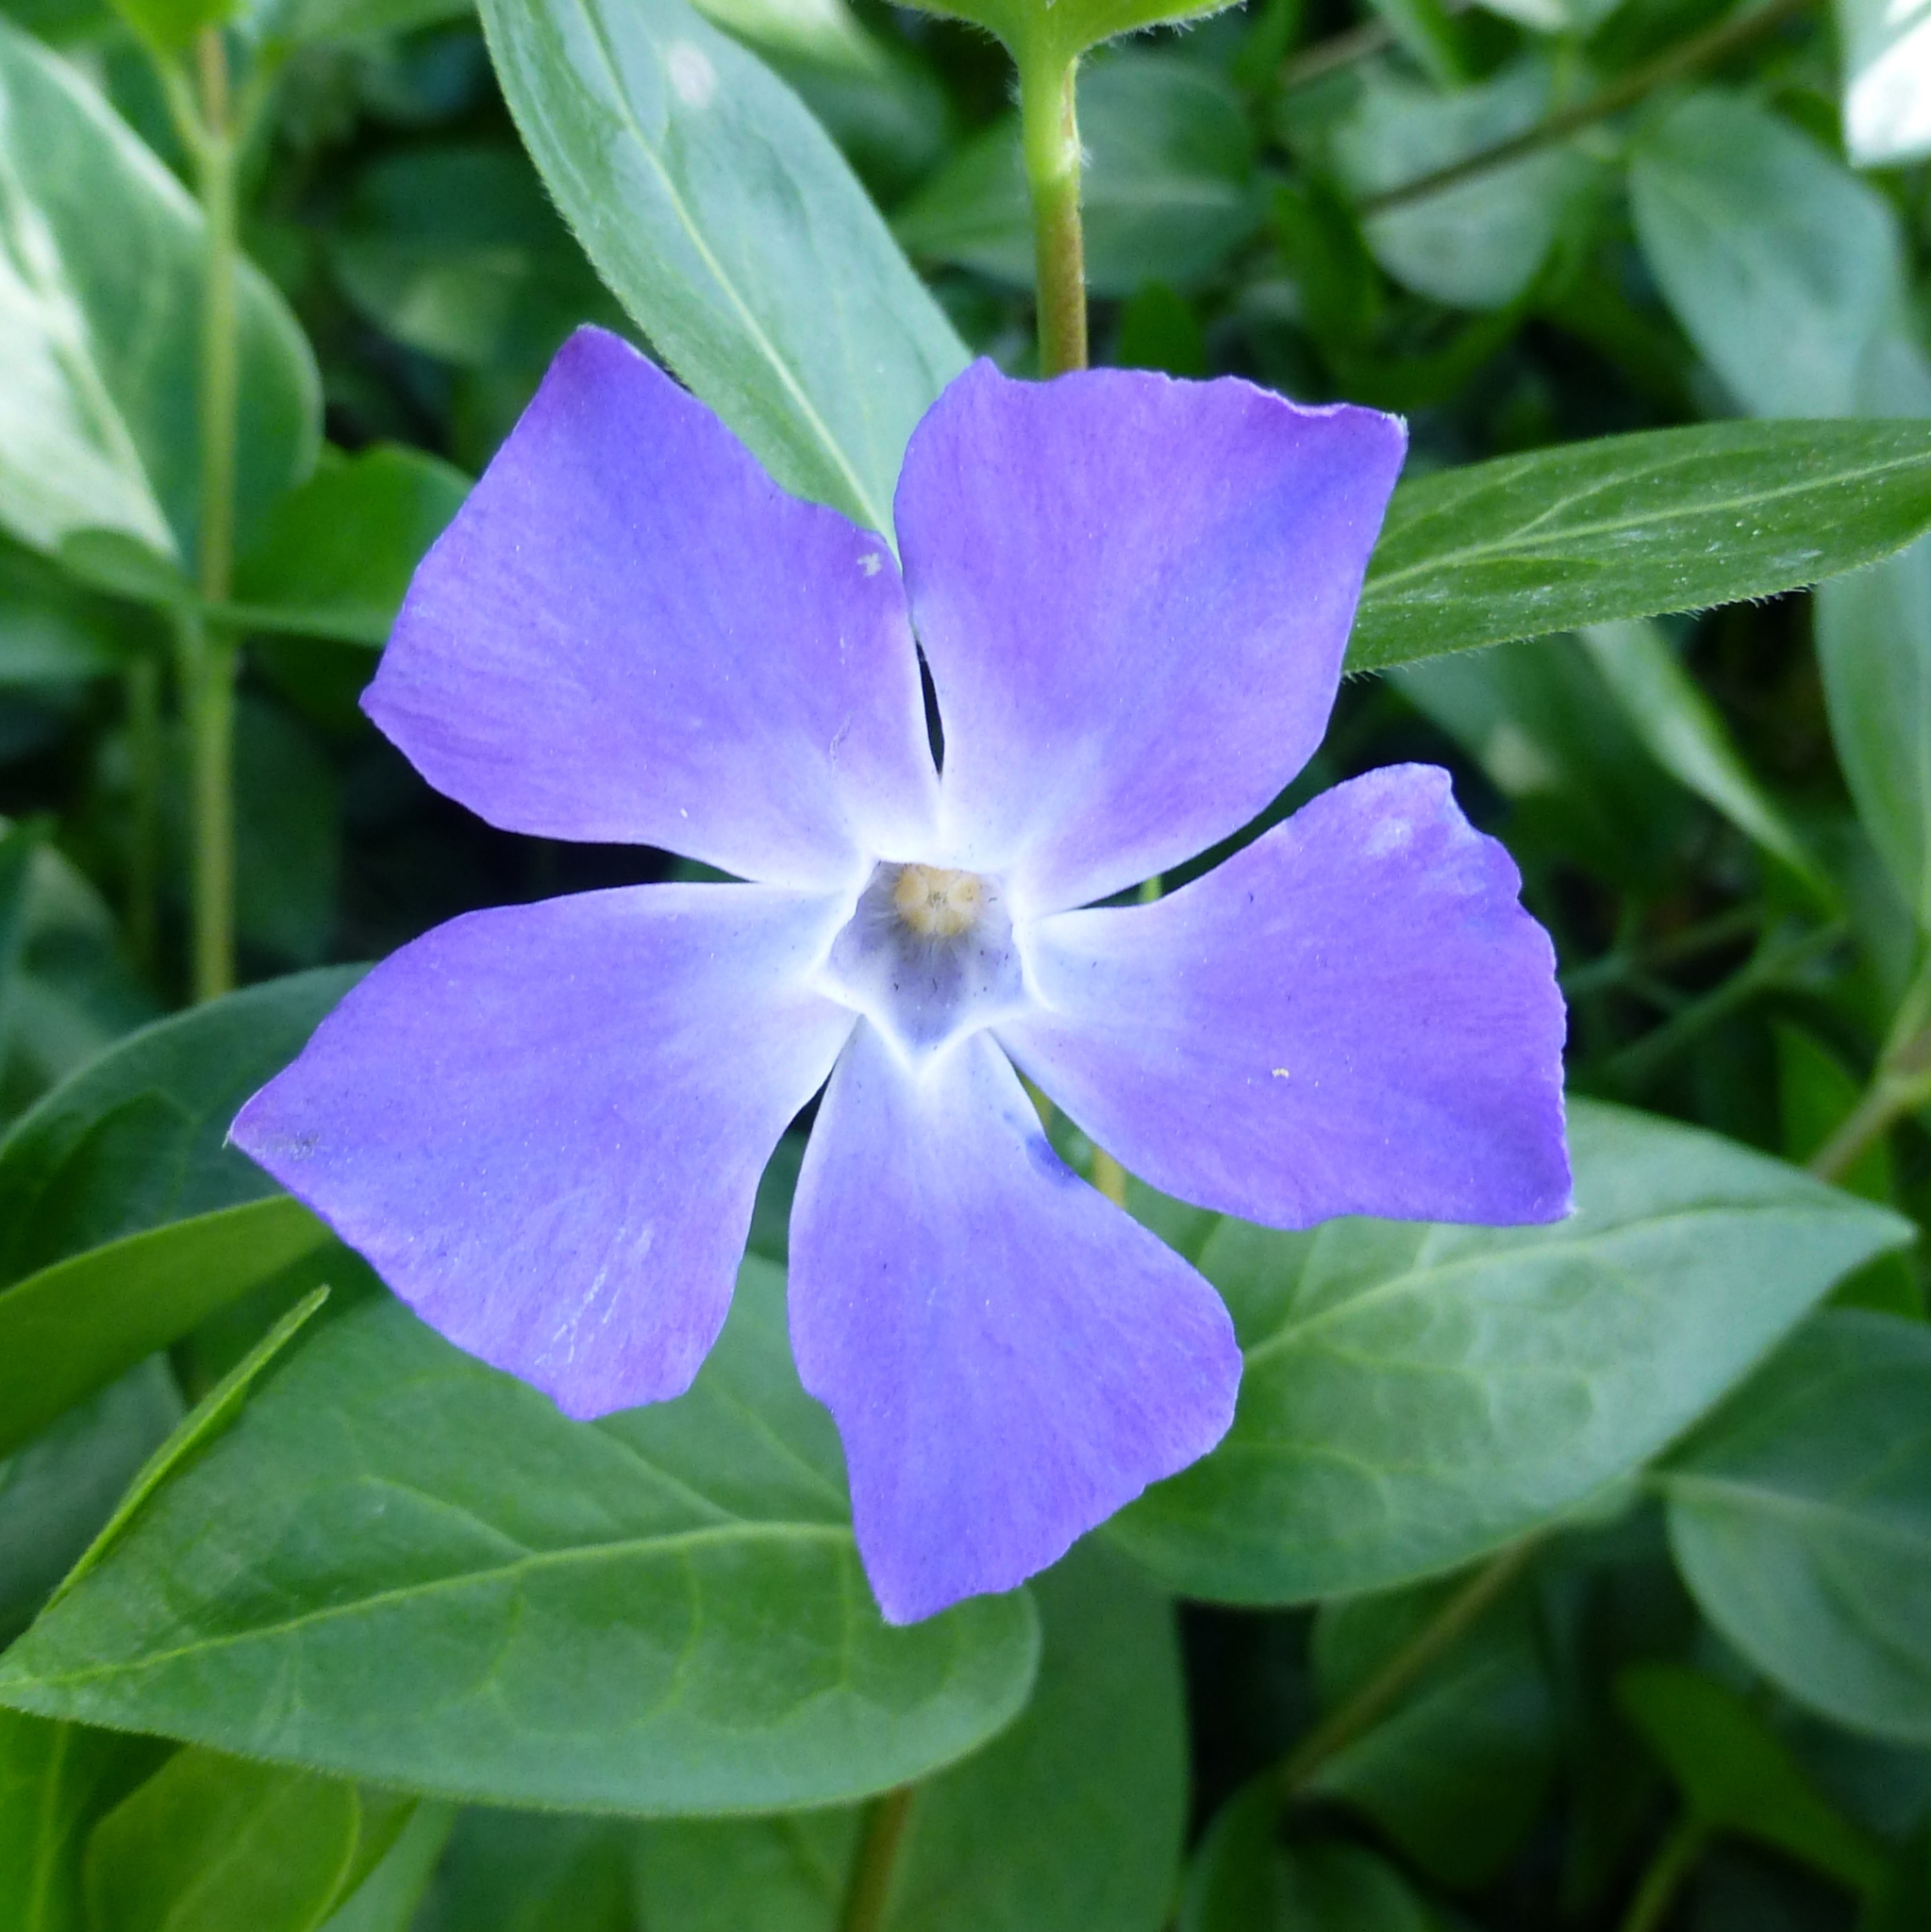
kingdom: Plantae
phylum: Tracheophyta
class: Magnoliopsida
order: Gentianales
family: Apocynaceae
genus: Vinca
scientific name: Vinca major
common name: Greater periwinkle
